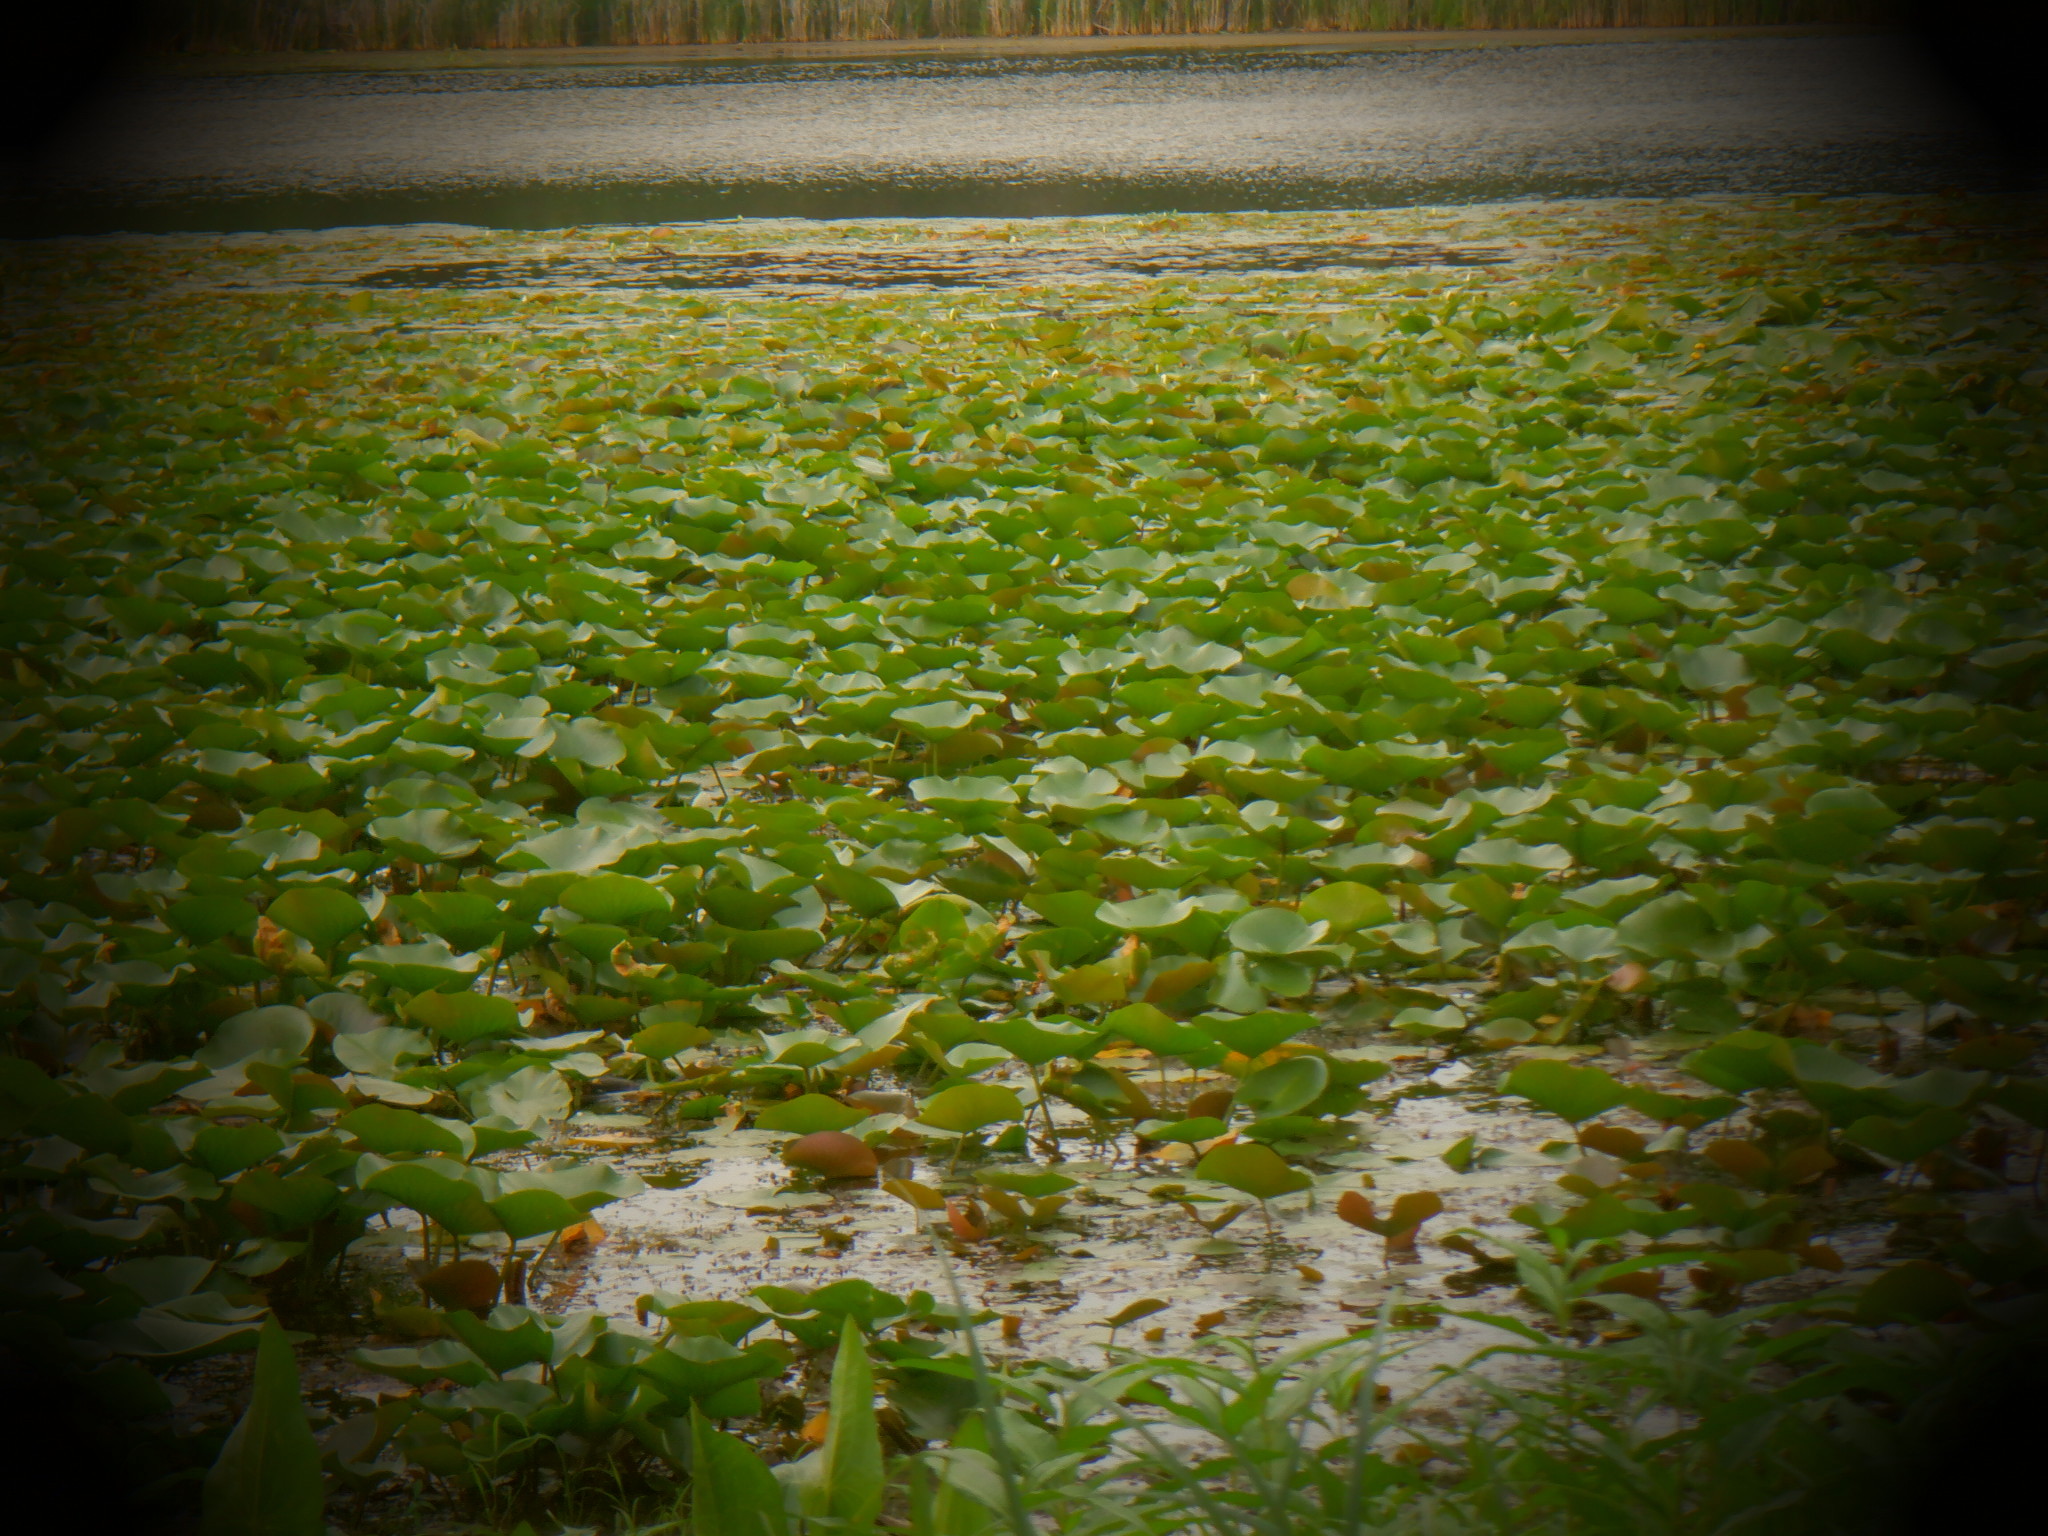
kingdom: Plantae
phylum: Tracheophyta
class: Magnoliopsida
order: Proteales
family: Nelumbonaceae
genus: Nelumbo
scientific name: Nelumbo lutea
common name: American lotus
